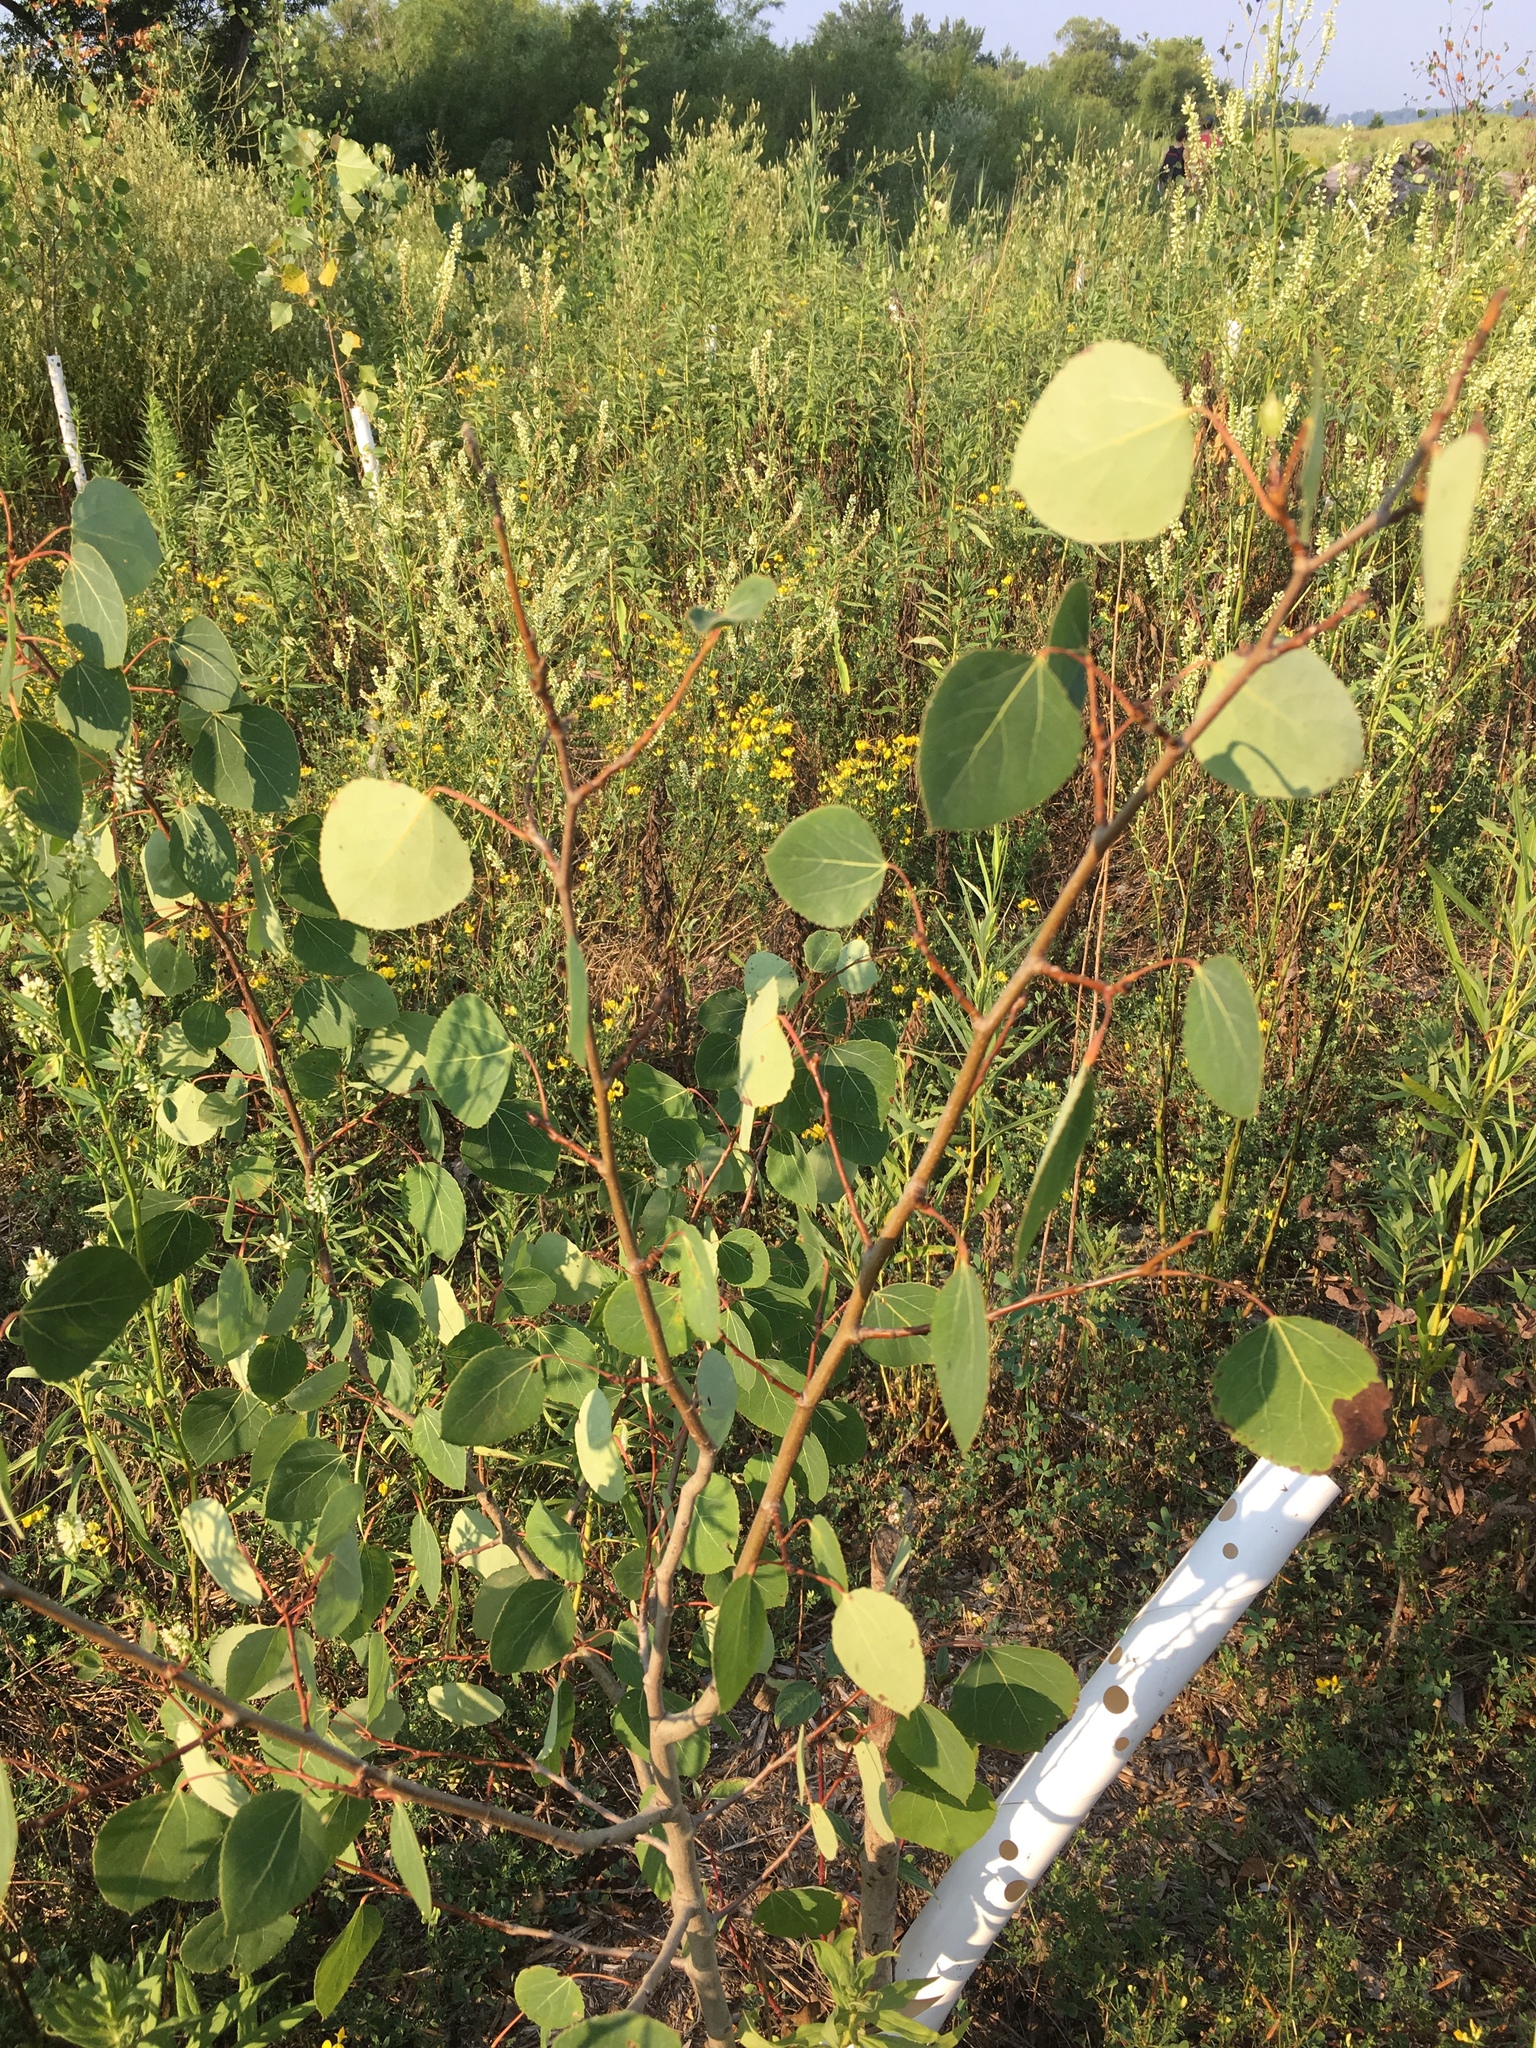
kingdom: Plantae
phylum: Tracheophyta
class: Magnoliopsida
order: Malpighiales
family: Salicaceae
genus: Populus
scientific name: Populus tremuloides
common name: Quaking aspen
